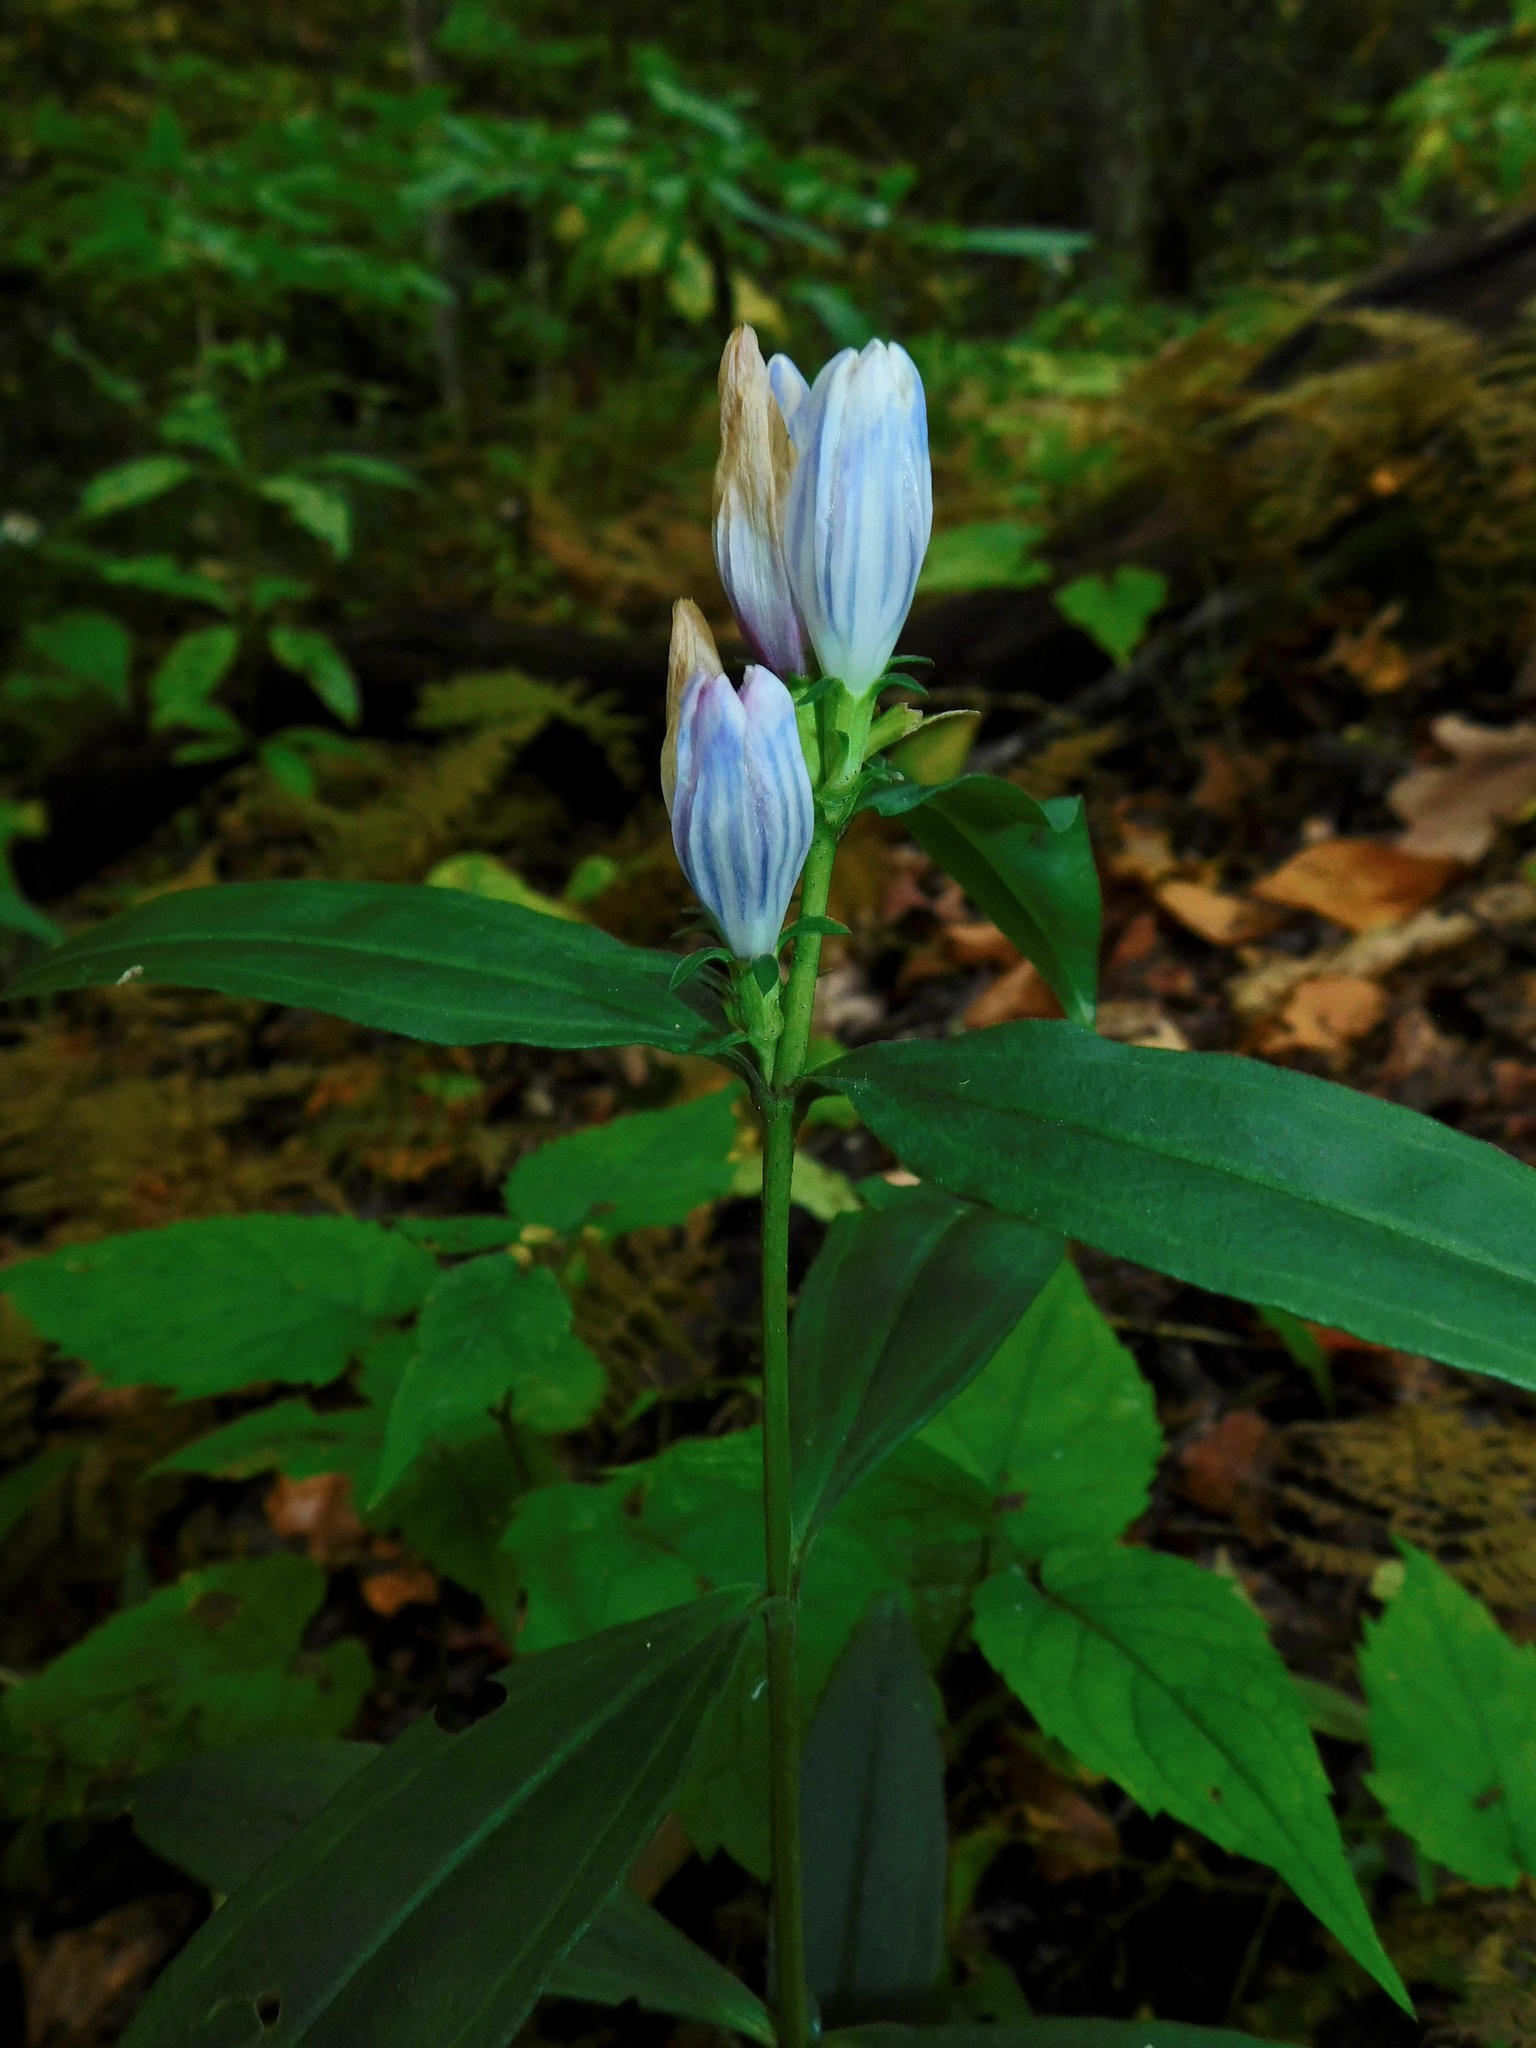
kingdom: Plantae
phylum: Tracheophyta
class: Magnoliopsida
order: Gentianales
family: Gentianaceae
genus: Gentiana
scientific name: Gentiana saponaria
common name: Soapwort gentian
